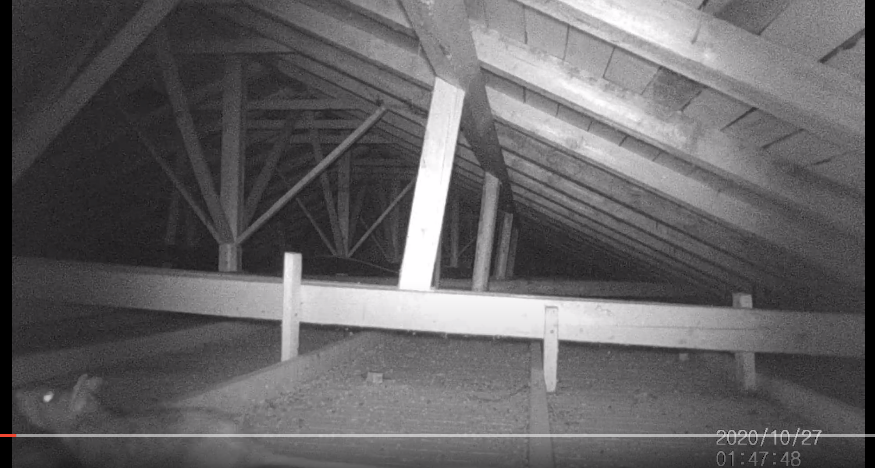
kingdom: Animalia
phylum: Chordata
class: Mammalia
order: Rodentia
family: Muridae
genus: Rattus
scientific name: Rattus rattus
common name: Black rat
